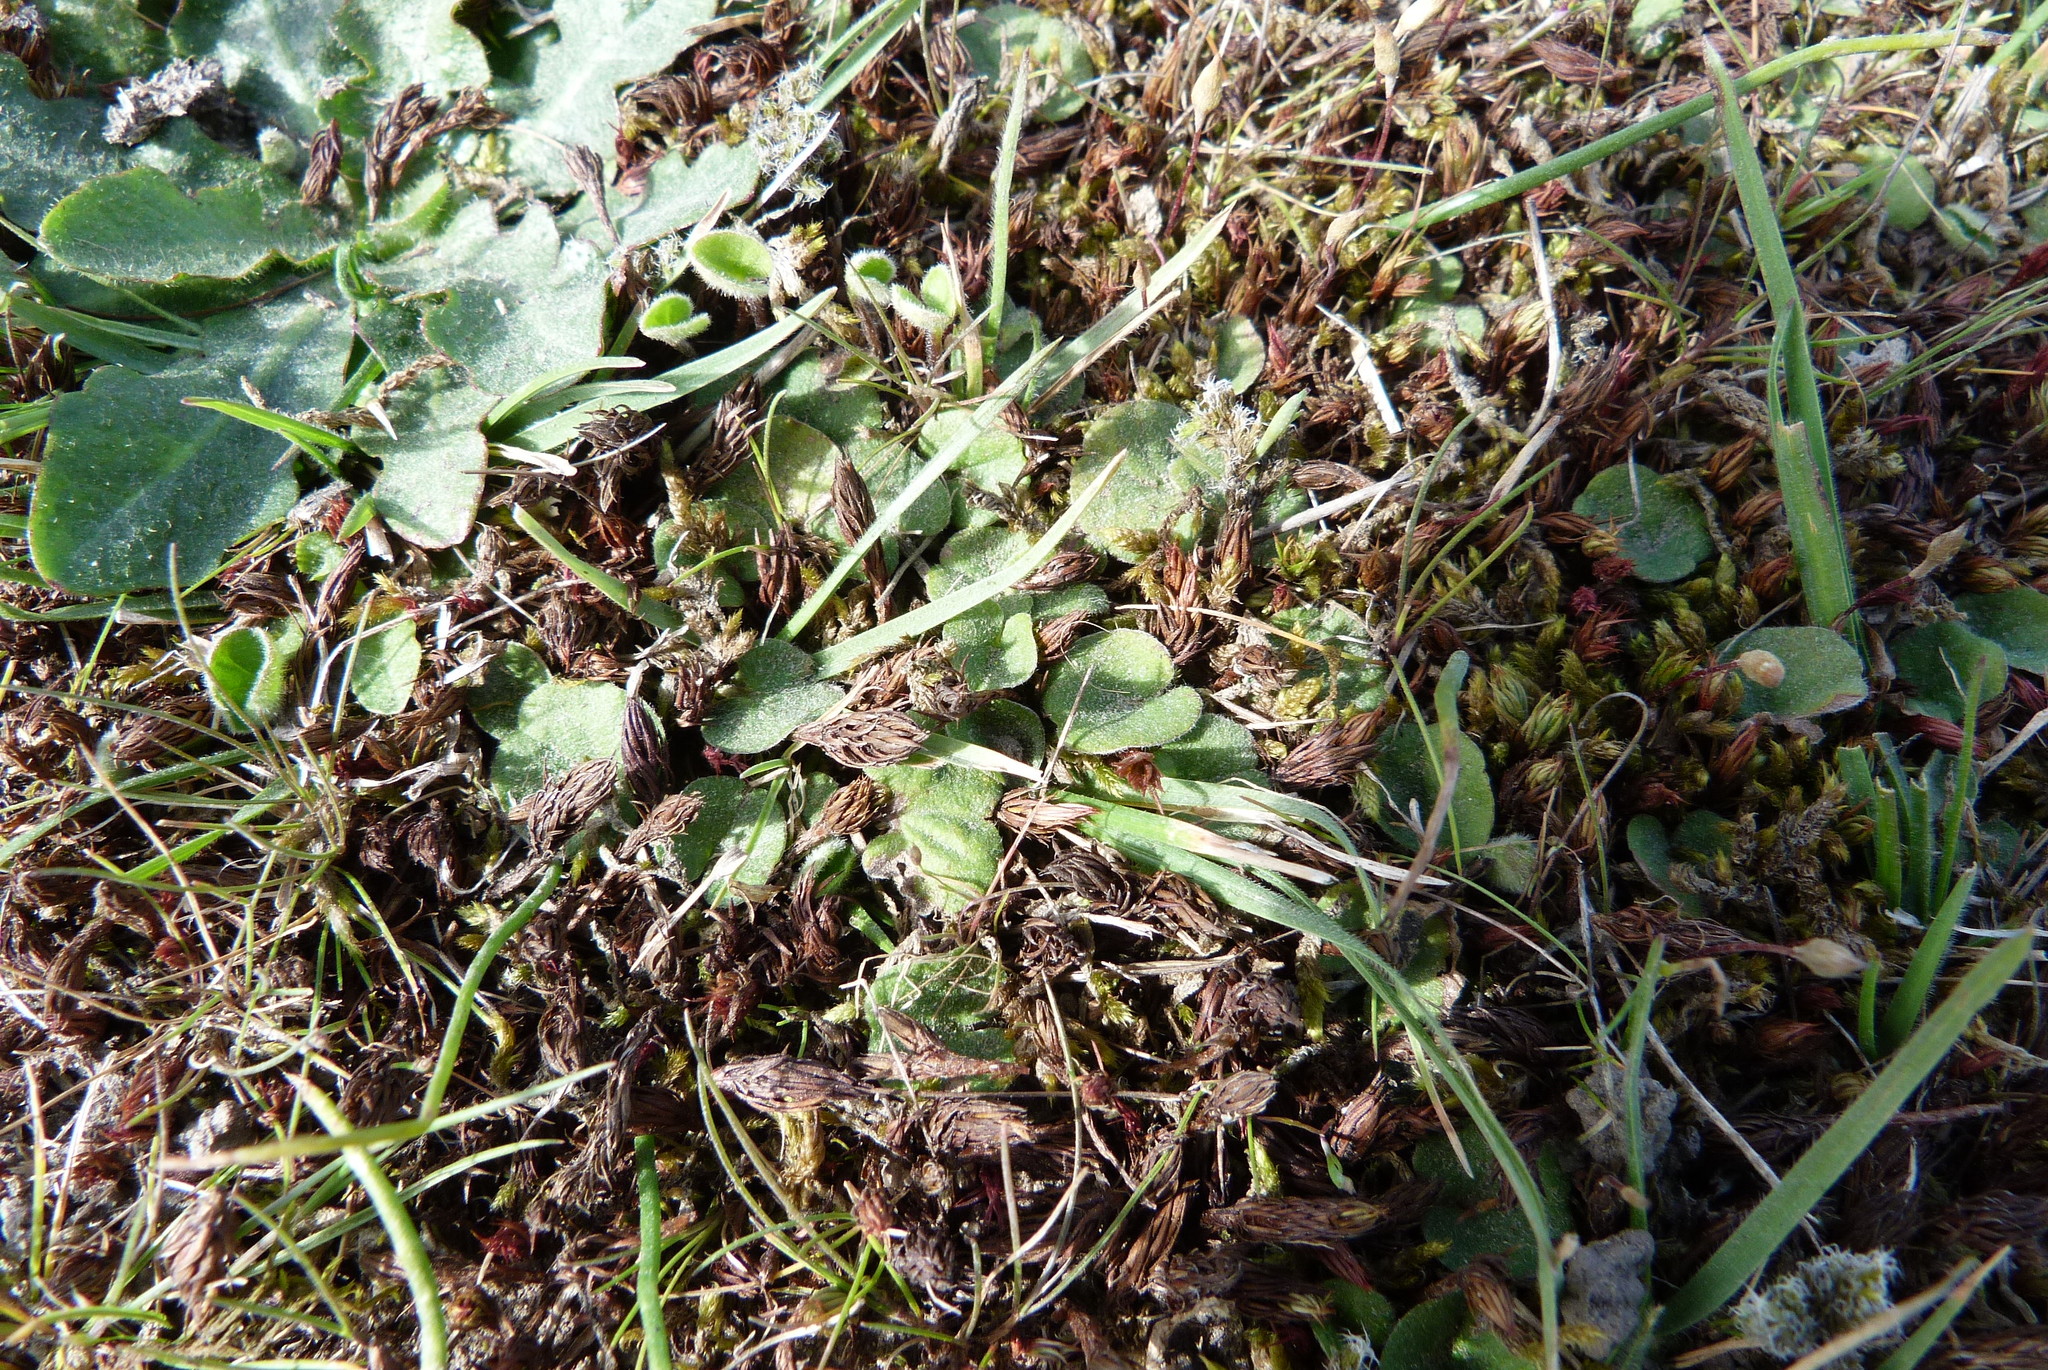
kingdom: Plantae
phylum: Tracheophyta
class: Magnoliopsida
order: Solanales
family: Convolvulaceae
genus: Dichondra
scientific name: Dichondra repens
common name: Kidneyweed
